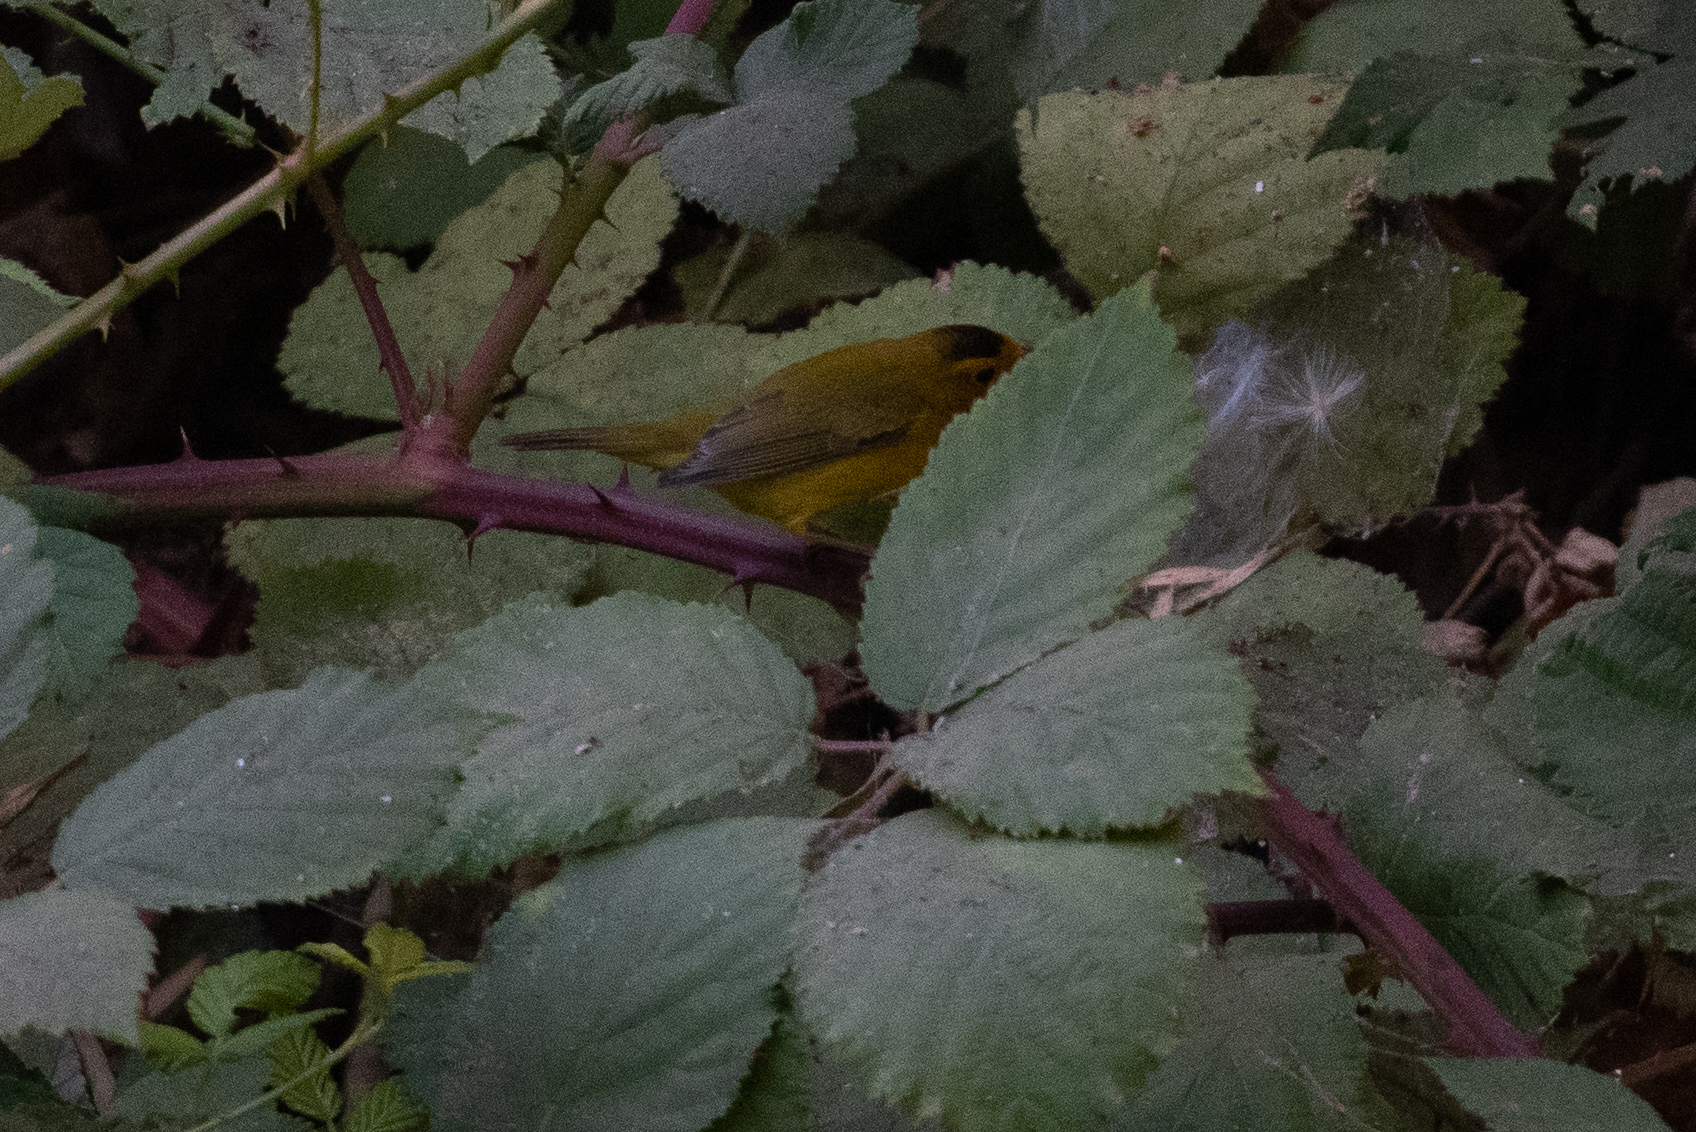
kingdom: Animalia
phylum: Chordata
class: Aves
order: Passeriformes
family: Parulidae
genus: Cardellina
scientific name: Cardellina pusilla
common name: Wilson's warbler
